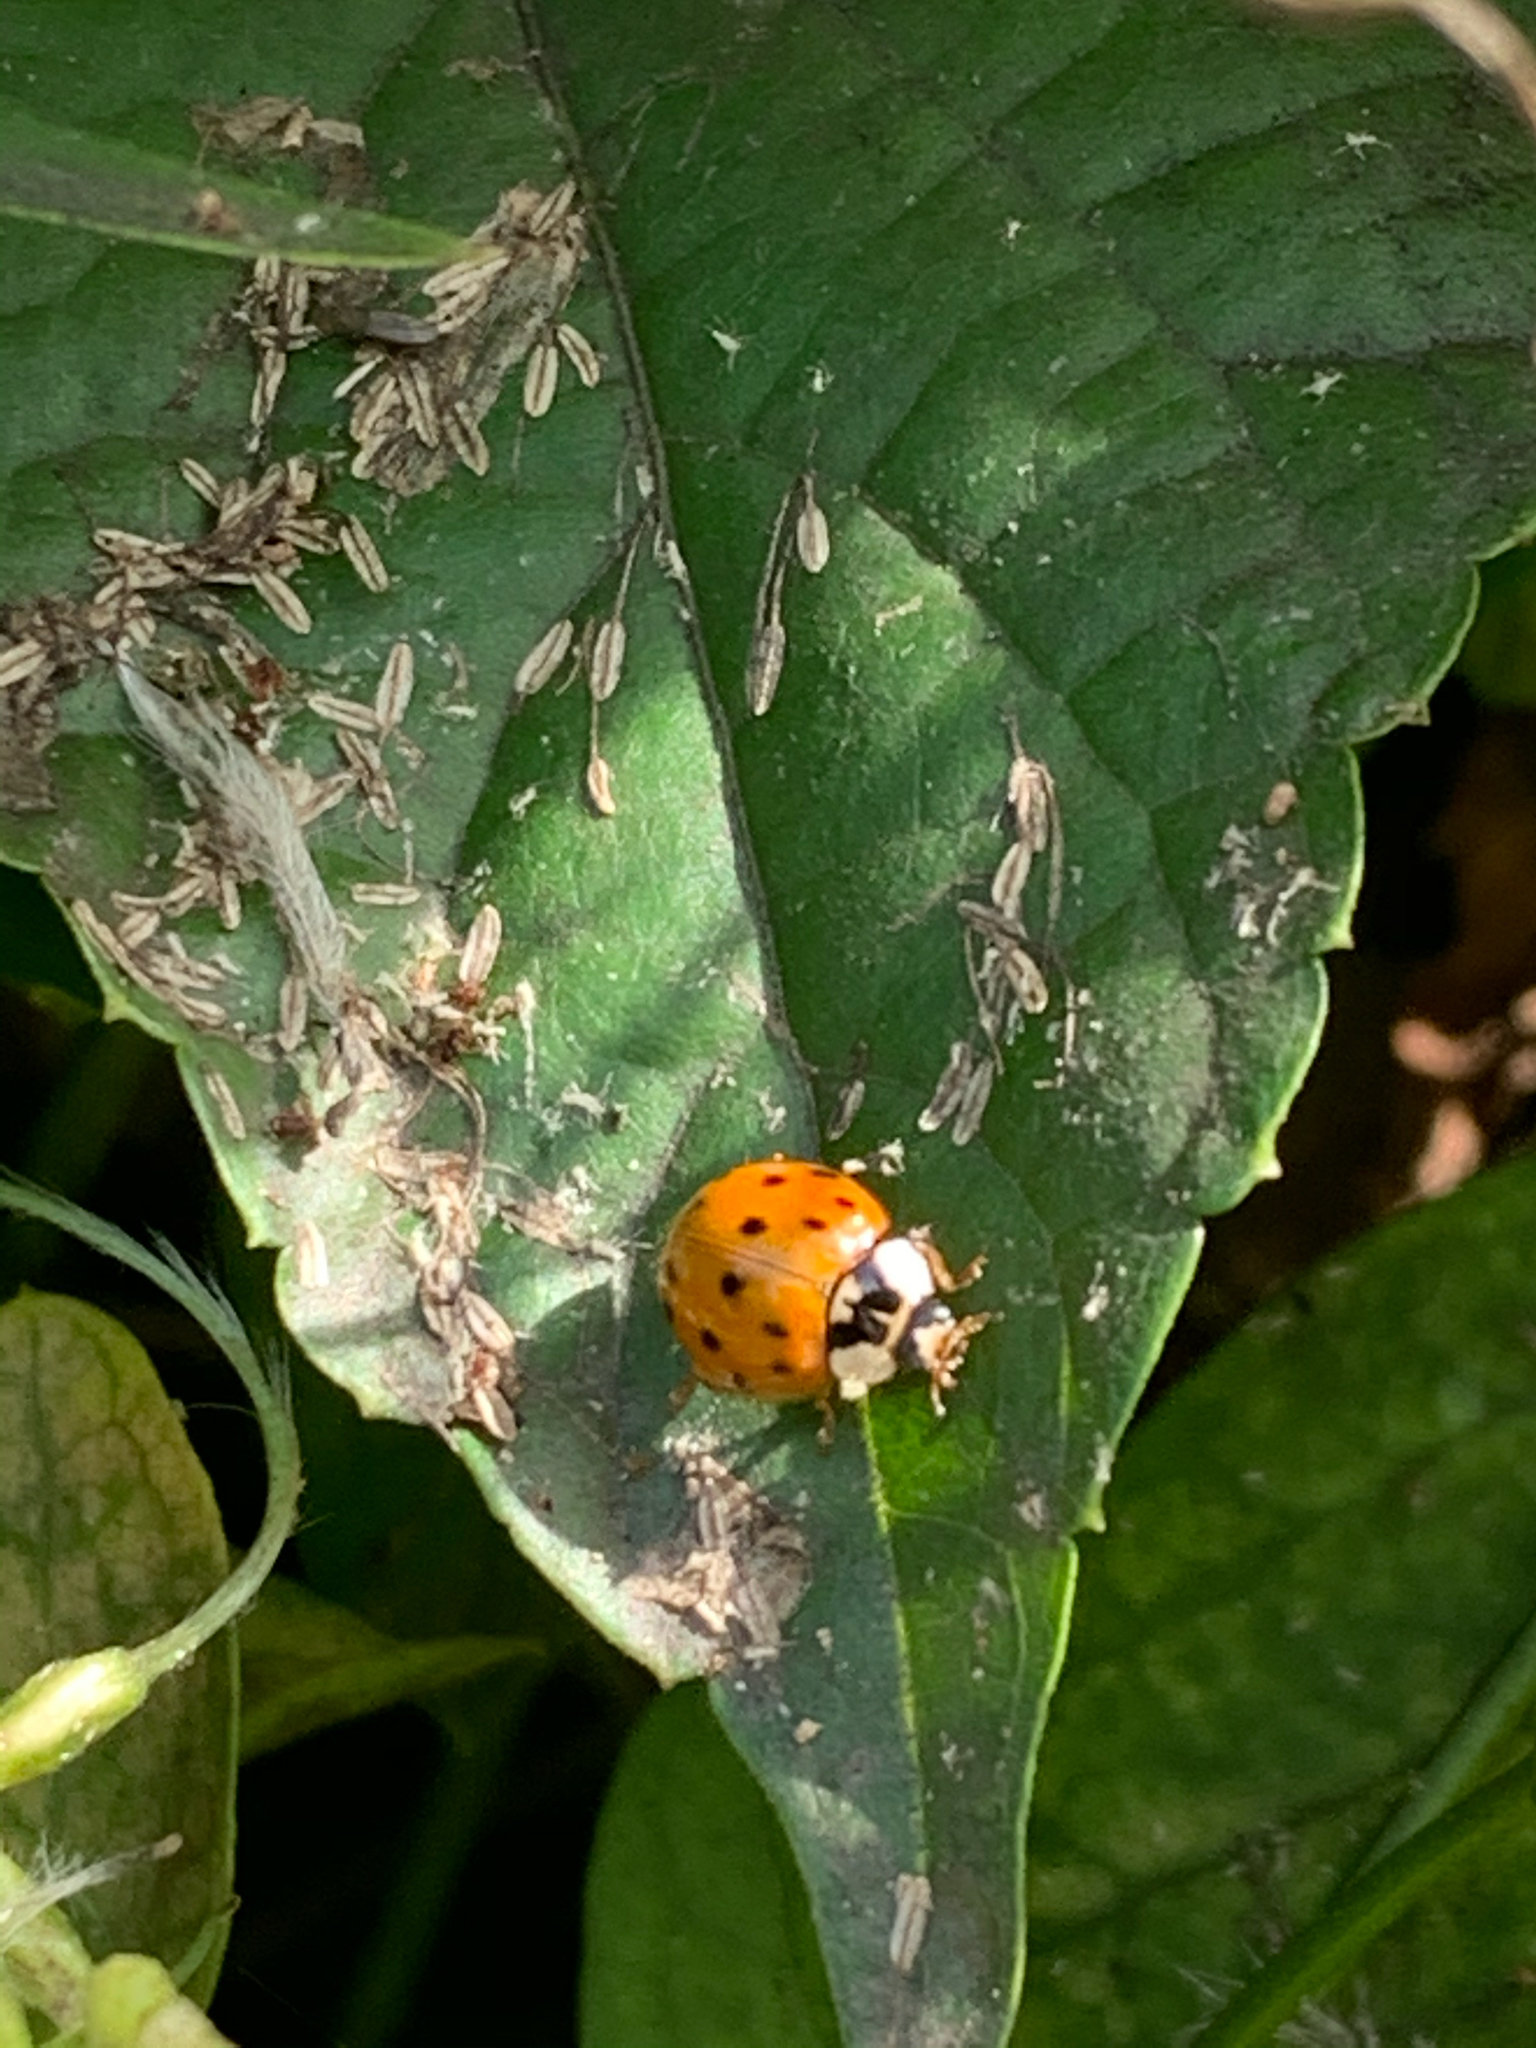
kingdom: Animalia
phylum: Arthropoda
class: Insecta
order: Coleoptera
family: Coccinellidae
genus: Harmonia
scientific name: Harmonia axyridis
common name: Harlequin ladybird
